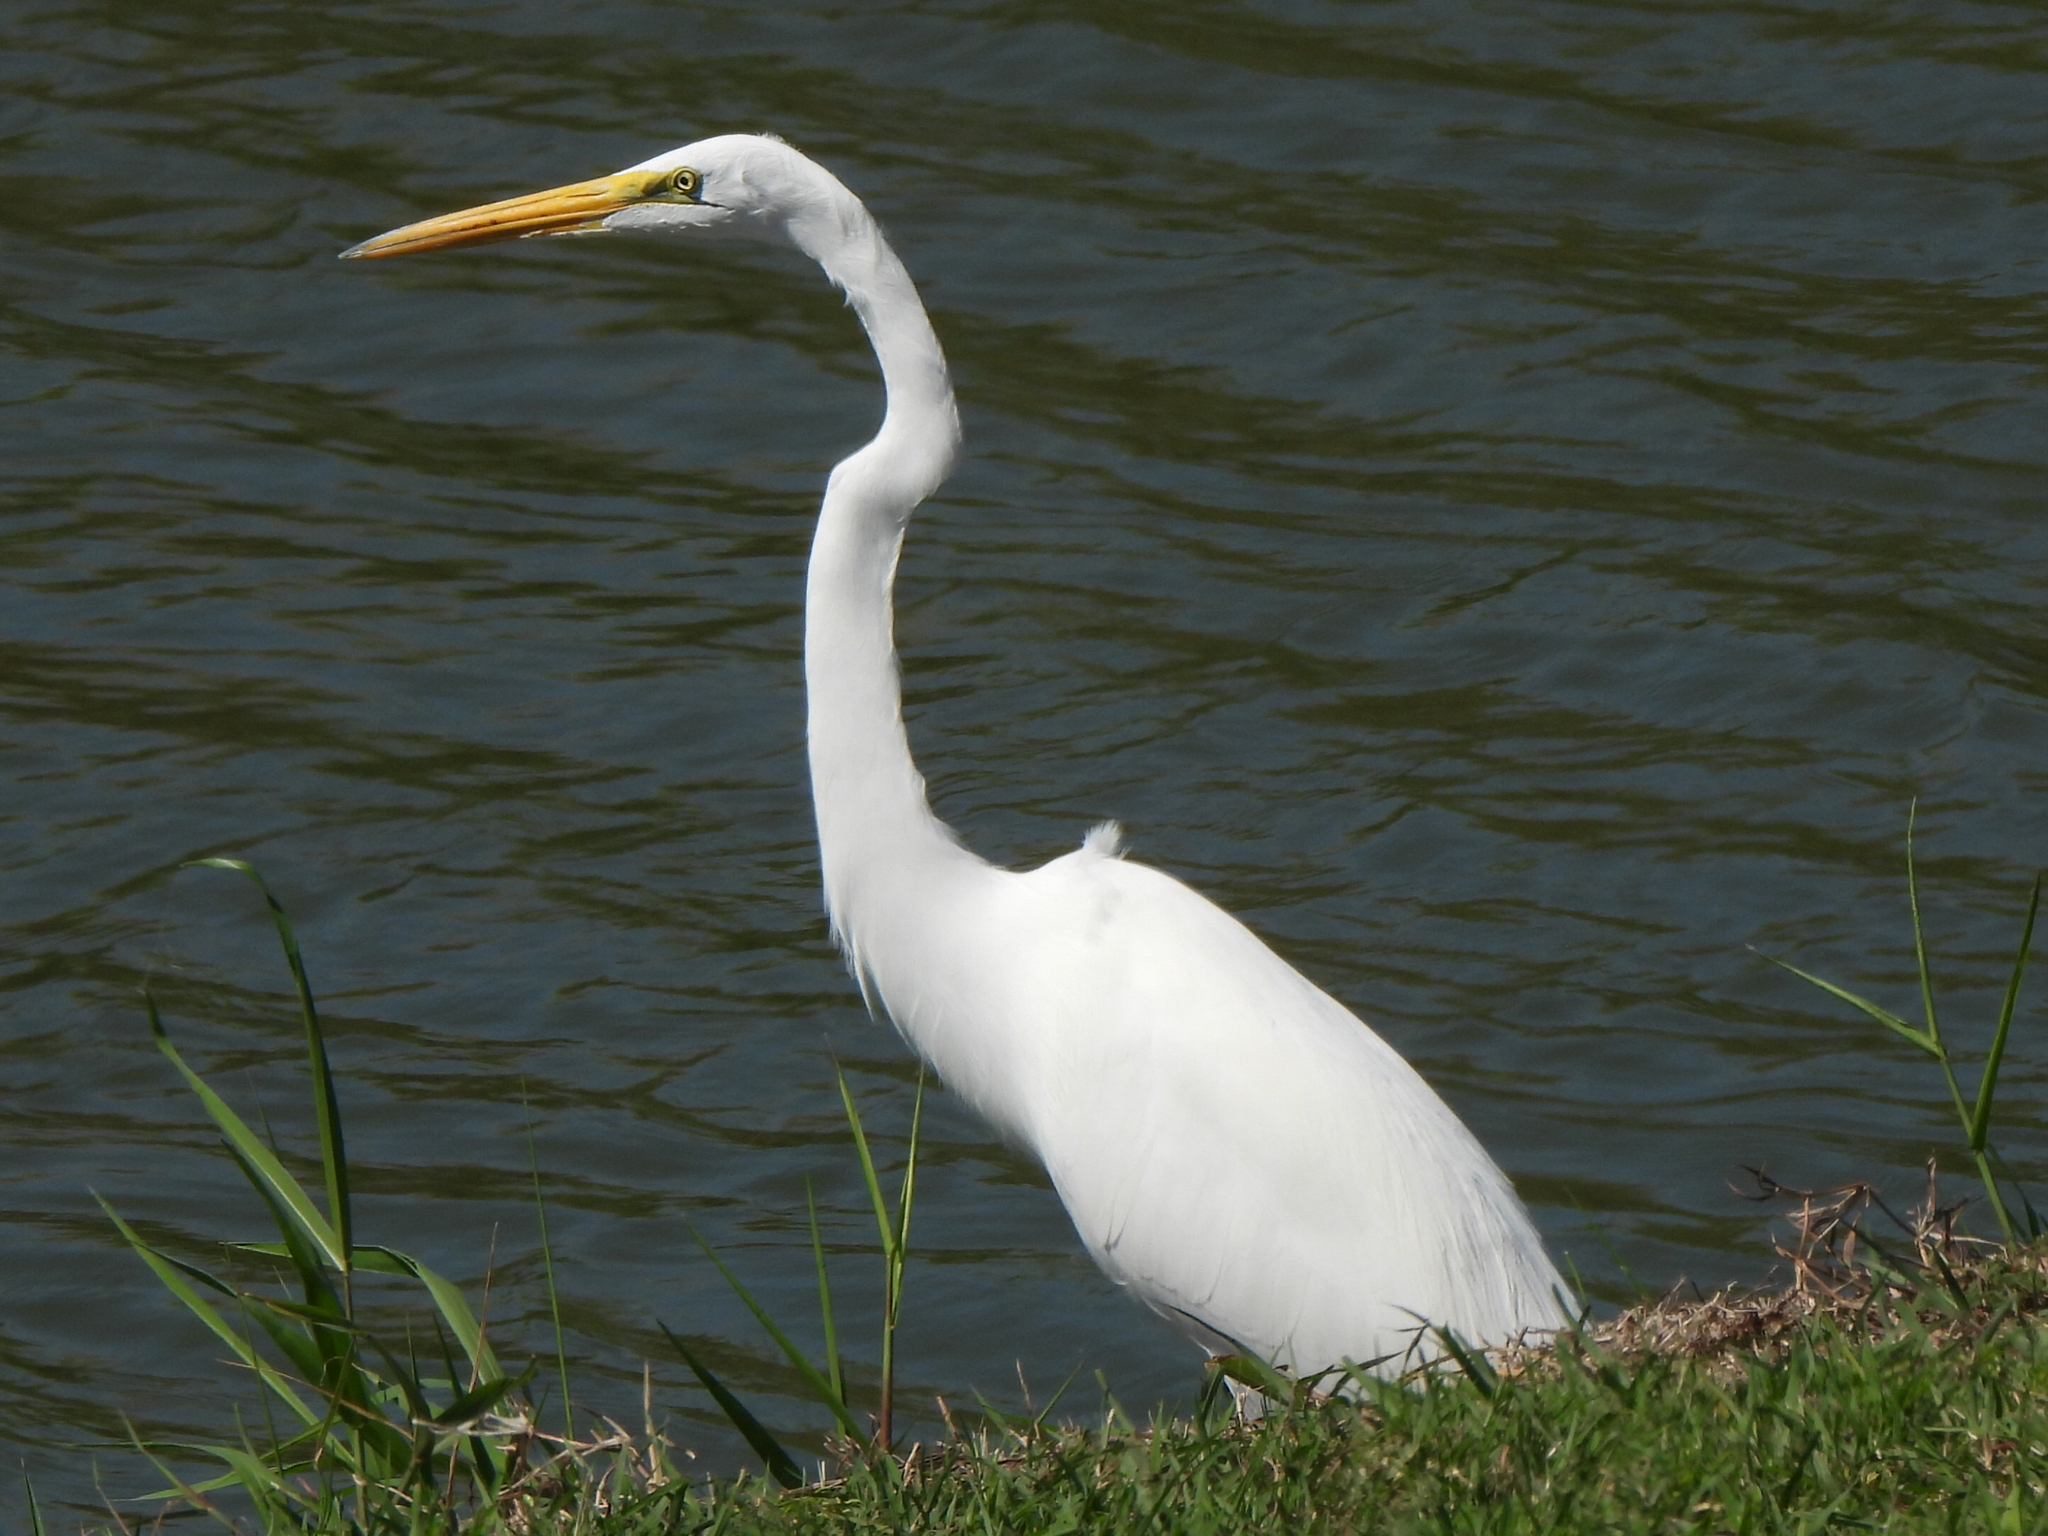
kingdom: Animalia
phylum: Chordata
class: Aves
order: Pelecaniformes
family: Ardeidae
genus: Ardea
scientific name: Ardea alba
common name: Great egret
